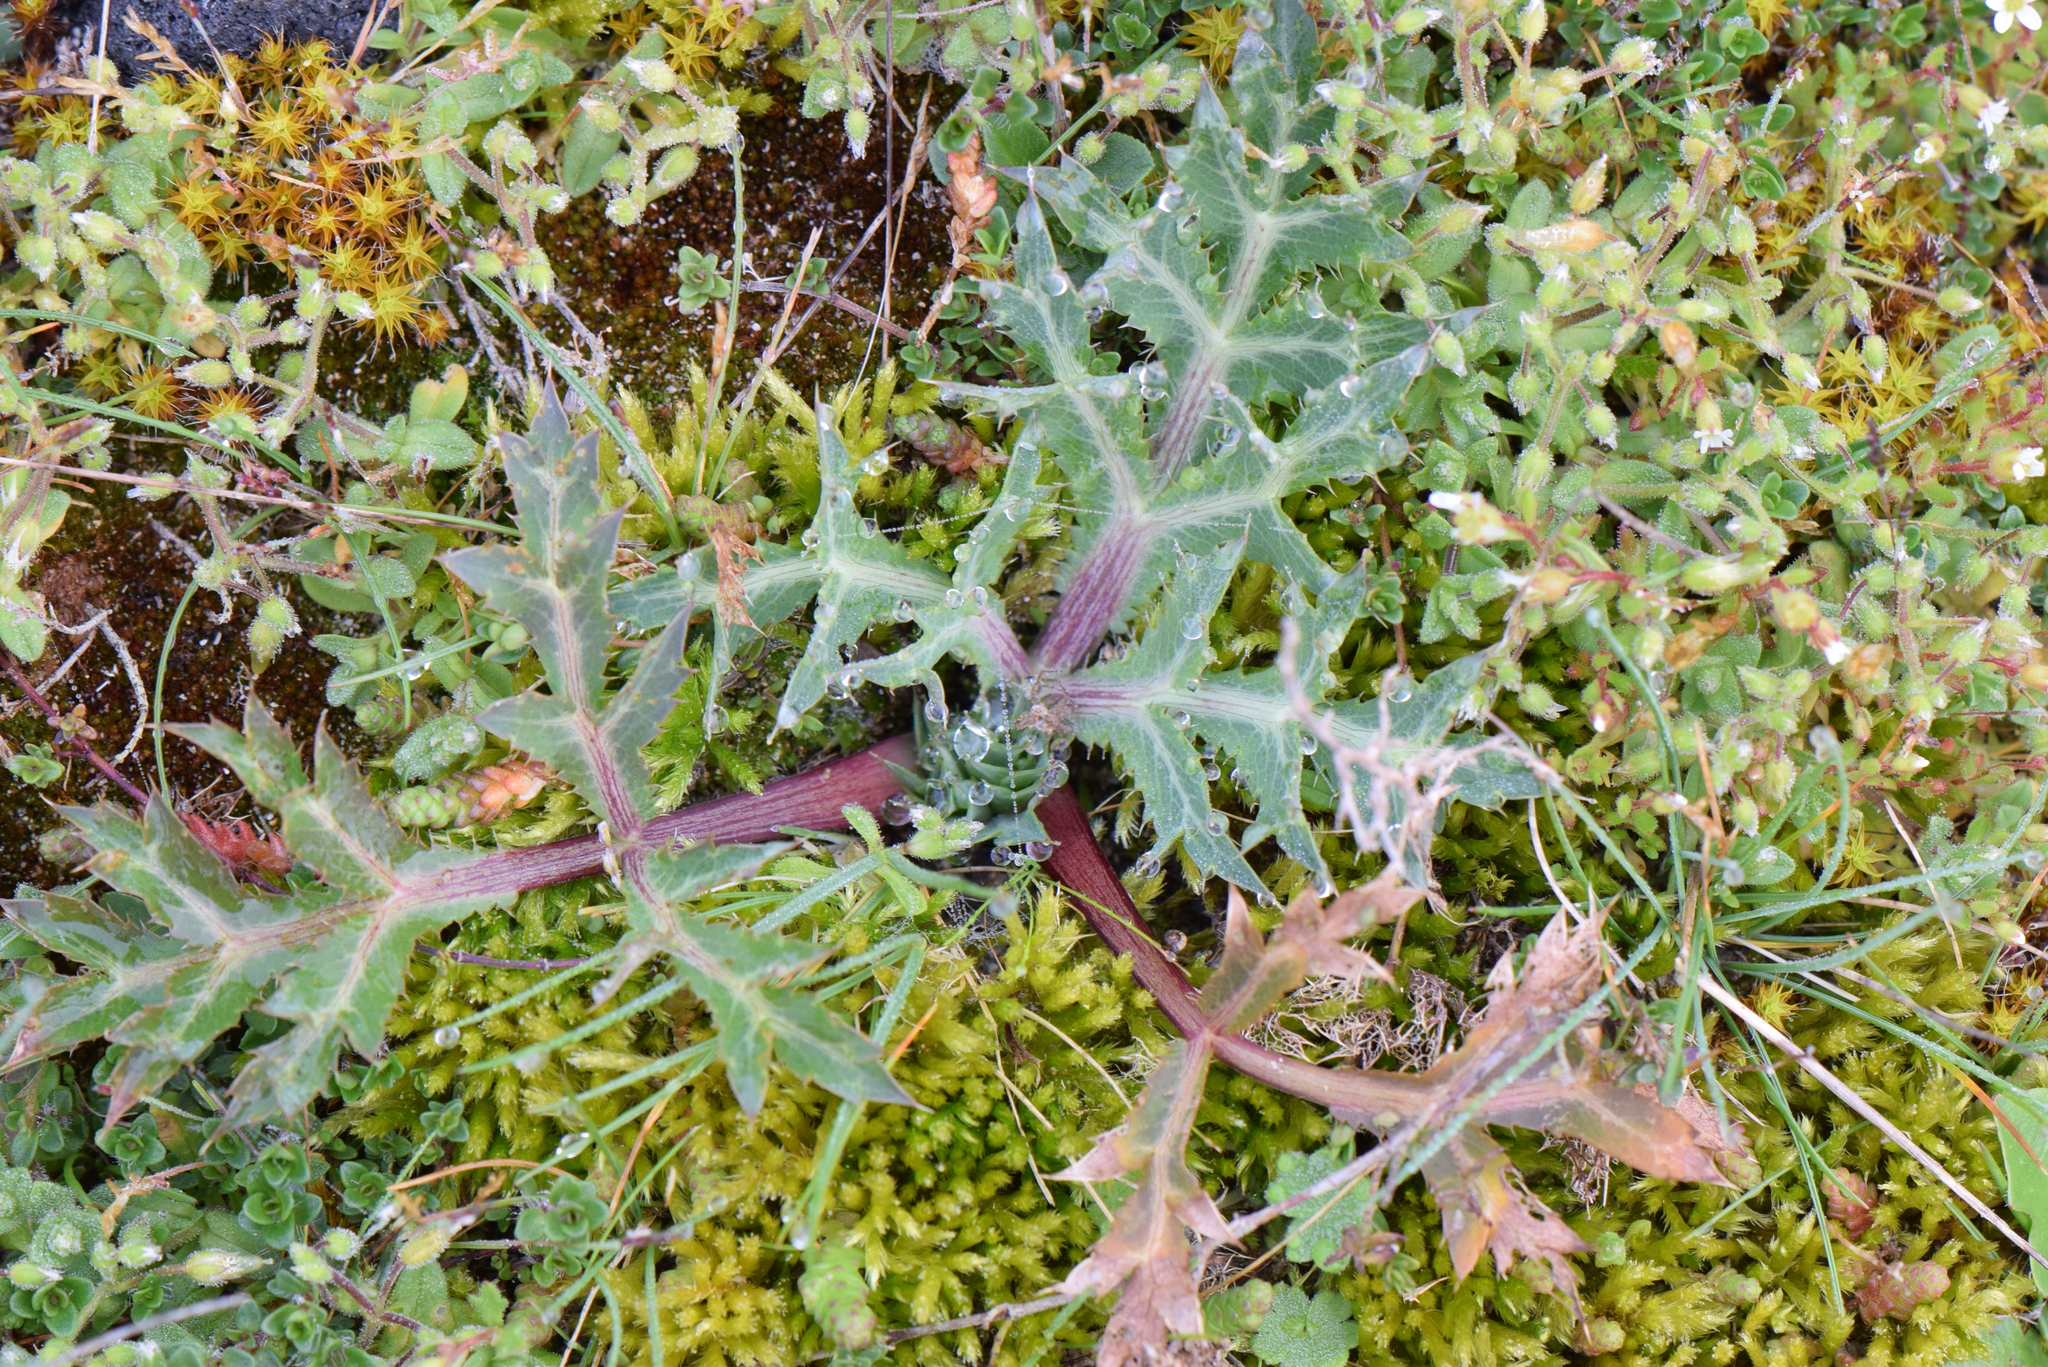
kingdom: Plantae
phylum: Tracheophyta
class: Magnoliopsida
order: Apiales
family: Apiaceae
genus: Eryngium
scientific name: Eryngium campestre
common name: Field eryngo
